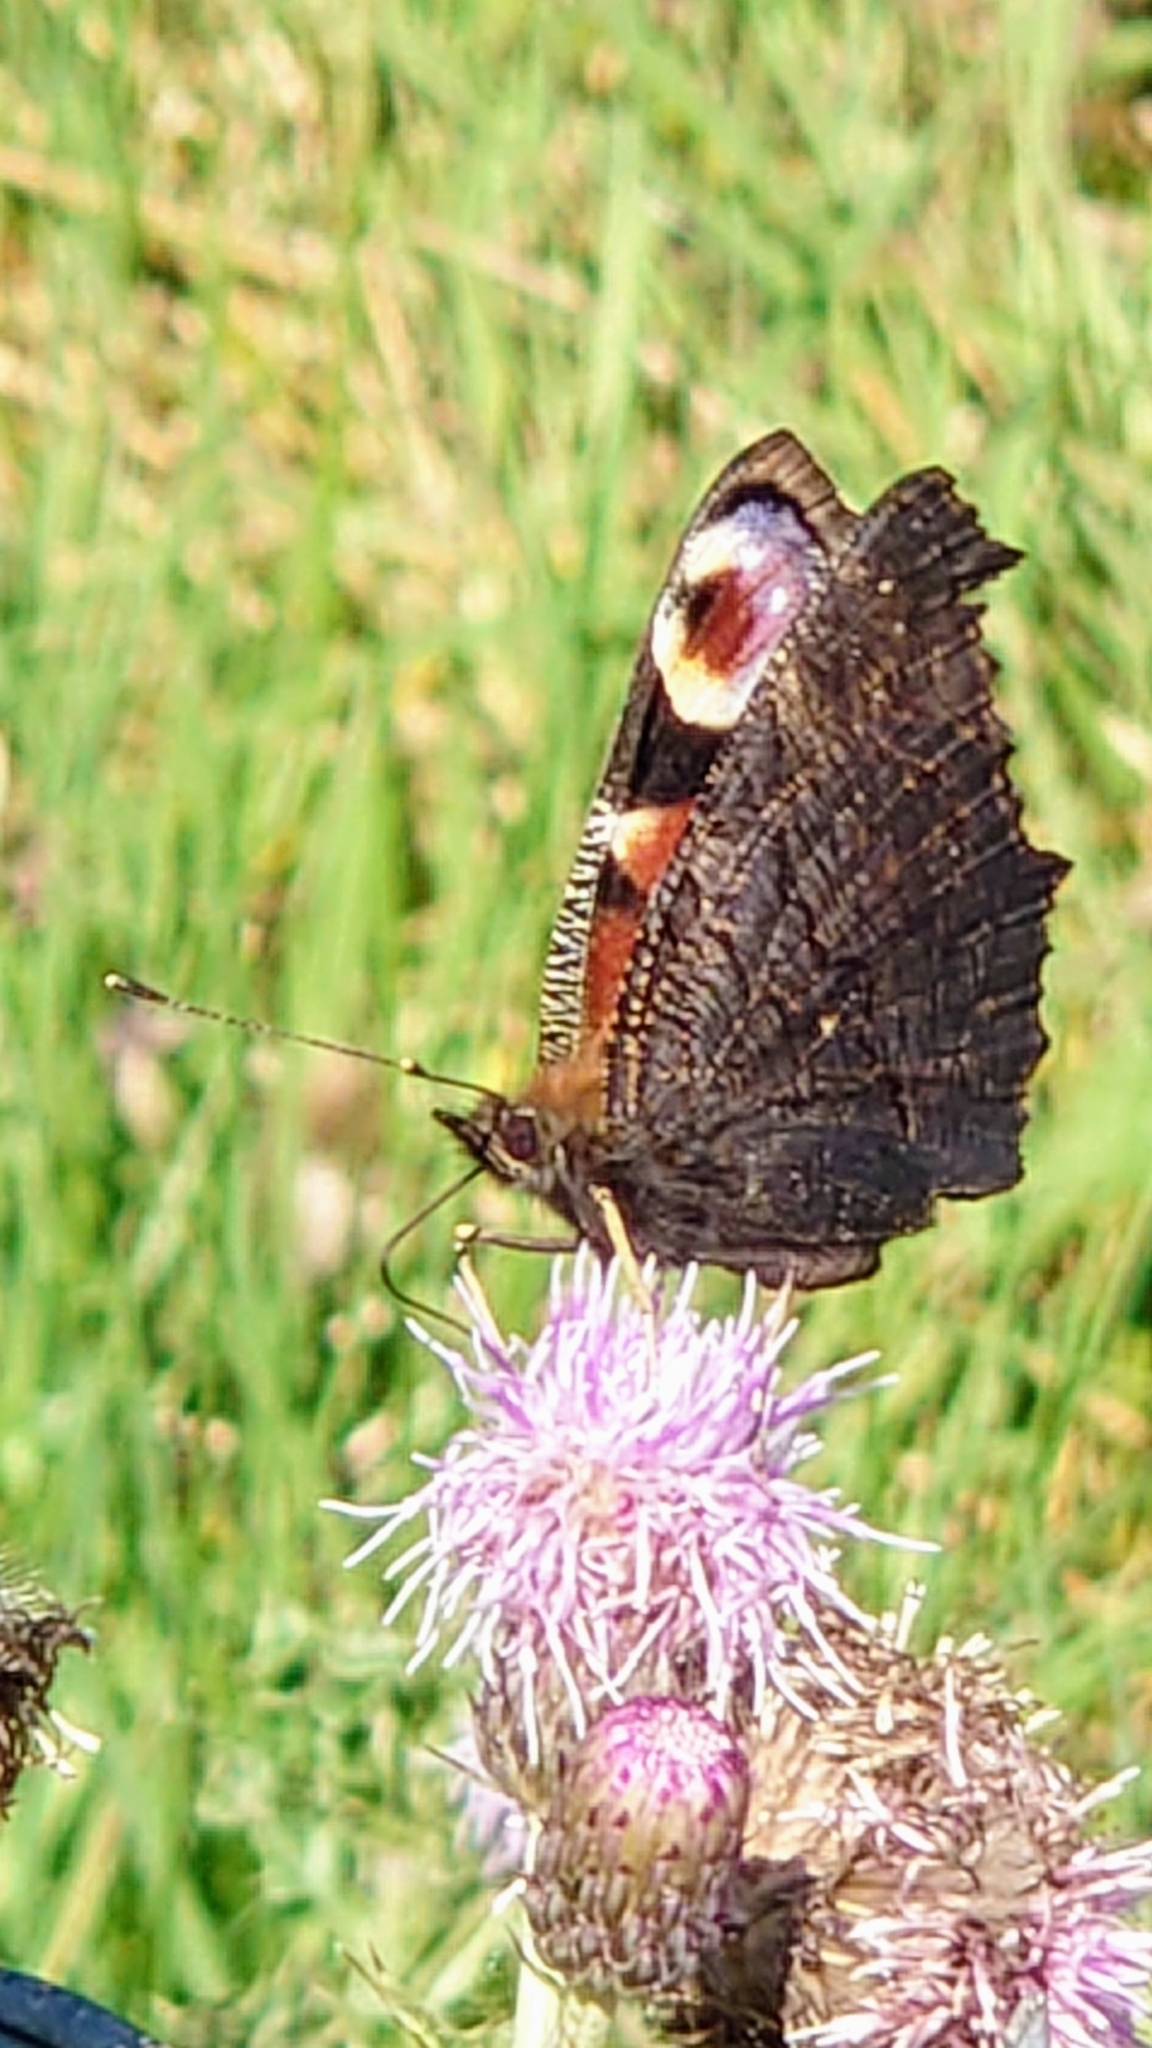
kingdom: Animalia
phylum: Arthropoda
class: Insecta
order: Lepidoptera
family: Nymphalidae
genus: Aglais
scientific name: Aglais io
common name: Peacock
